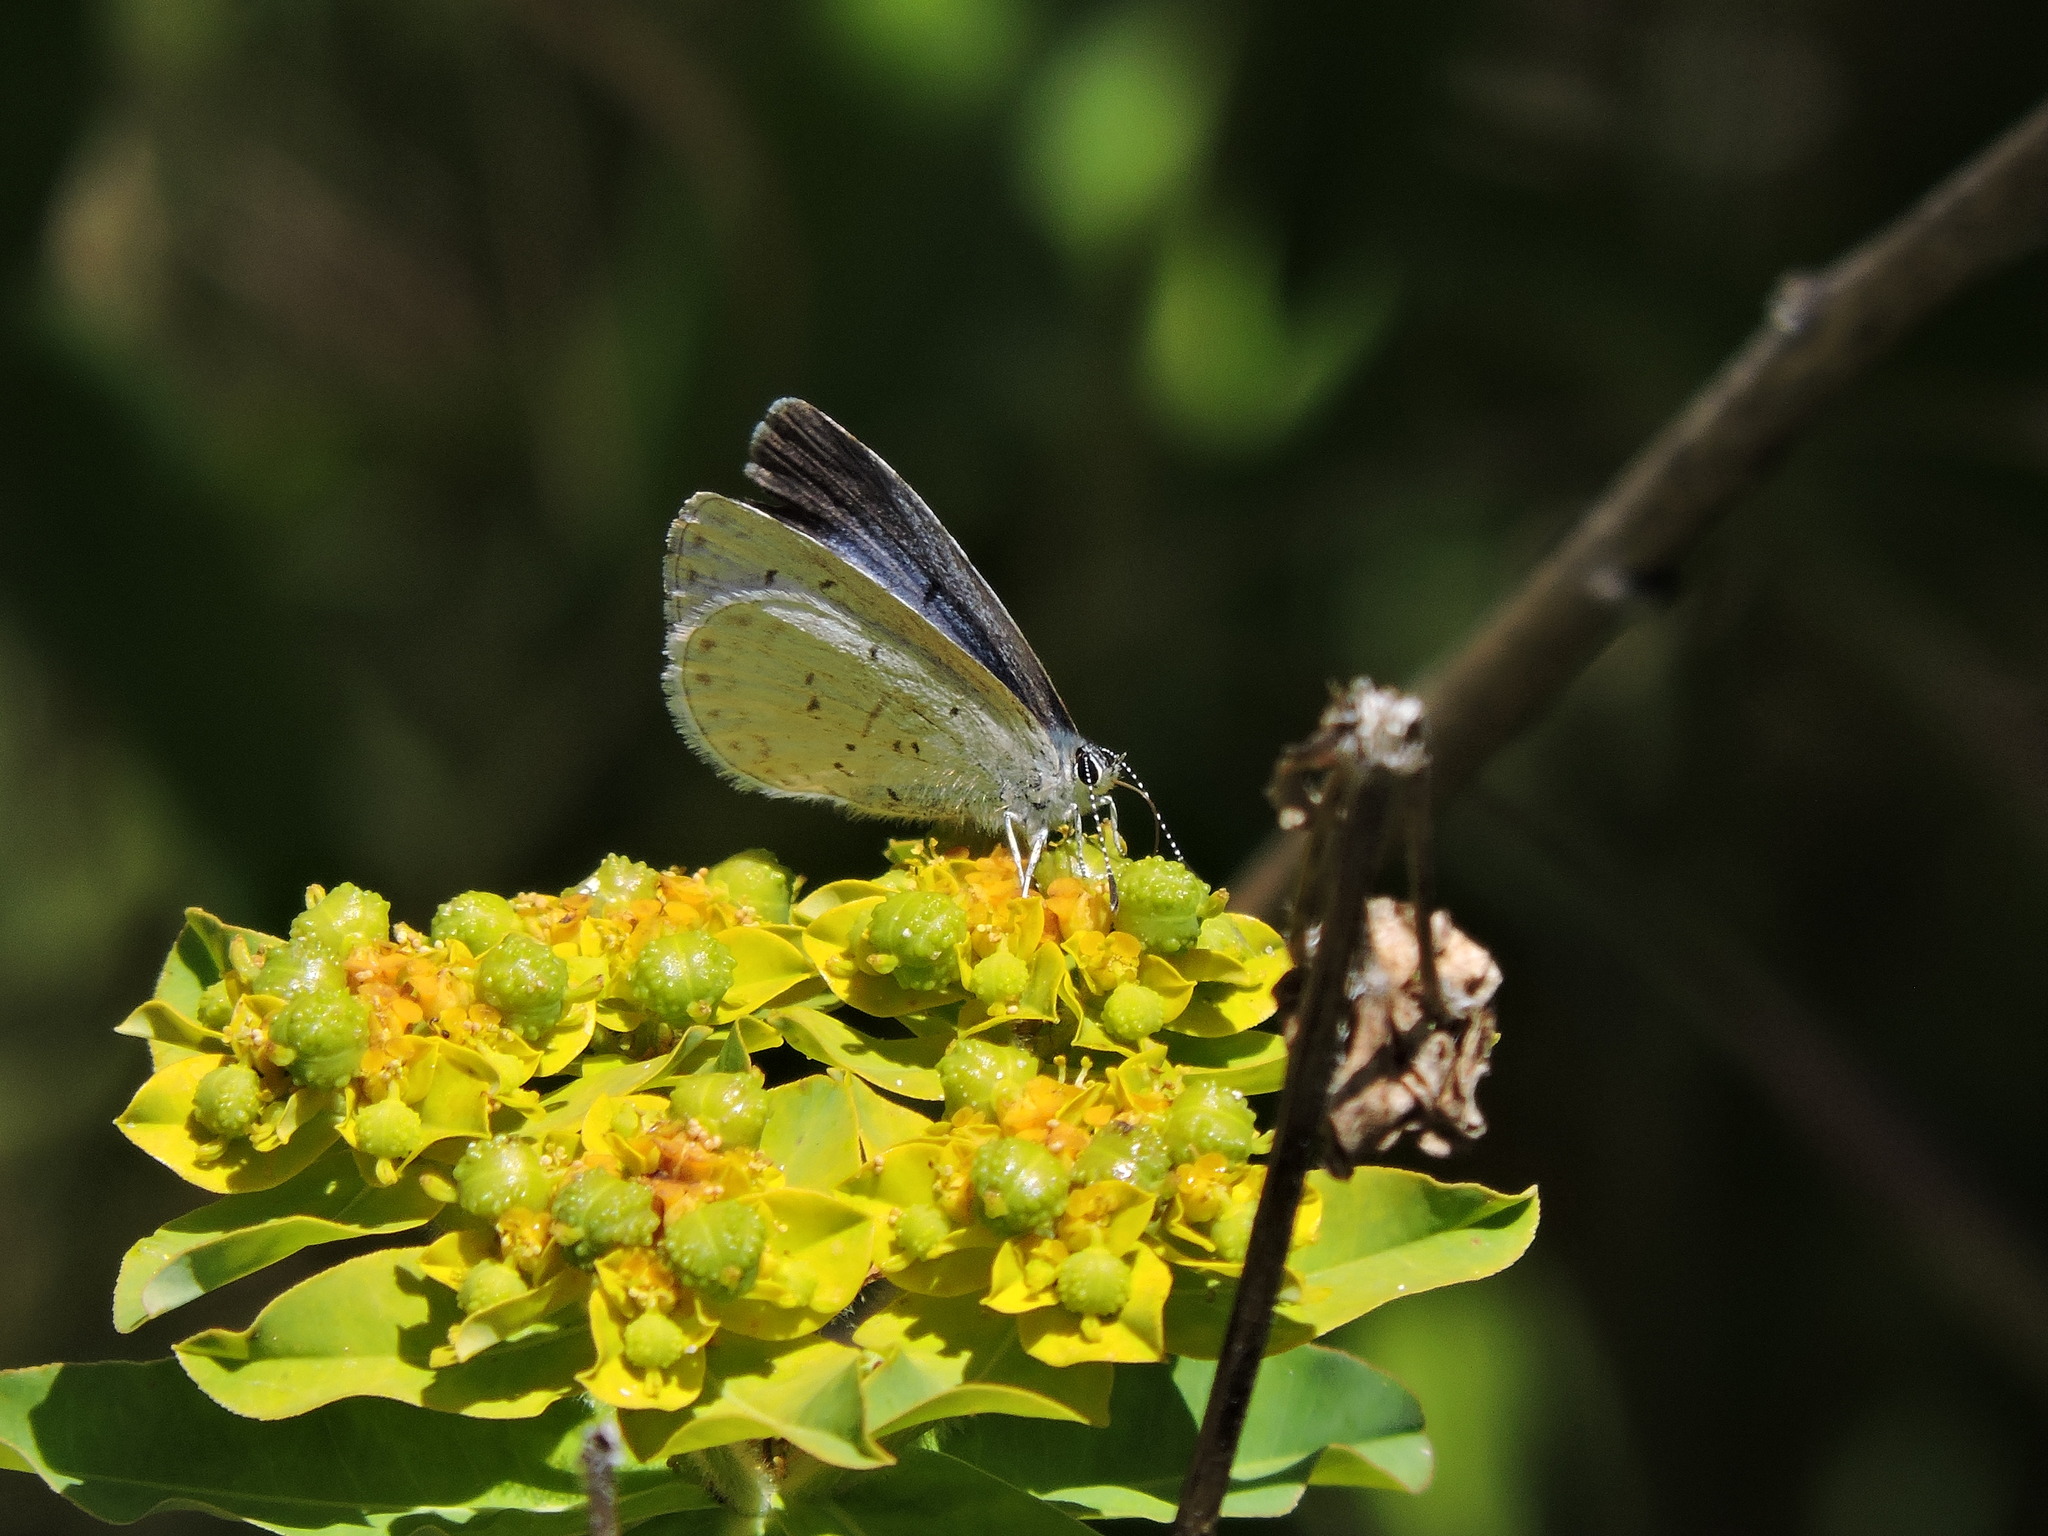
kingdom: Animalia
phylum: Arthropoda
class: Insecta
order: Lepidoptera
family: Lycaenidae
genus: Celastrina
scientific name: Celastrina ladon
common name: Spring azure
